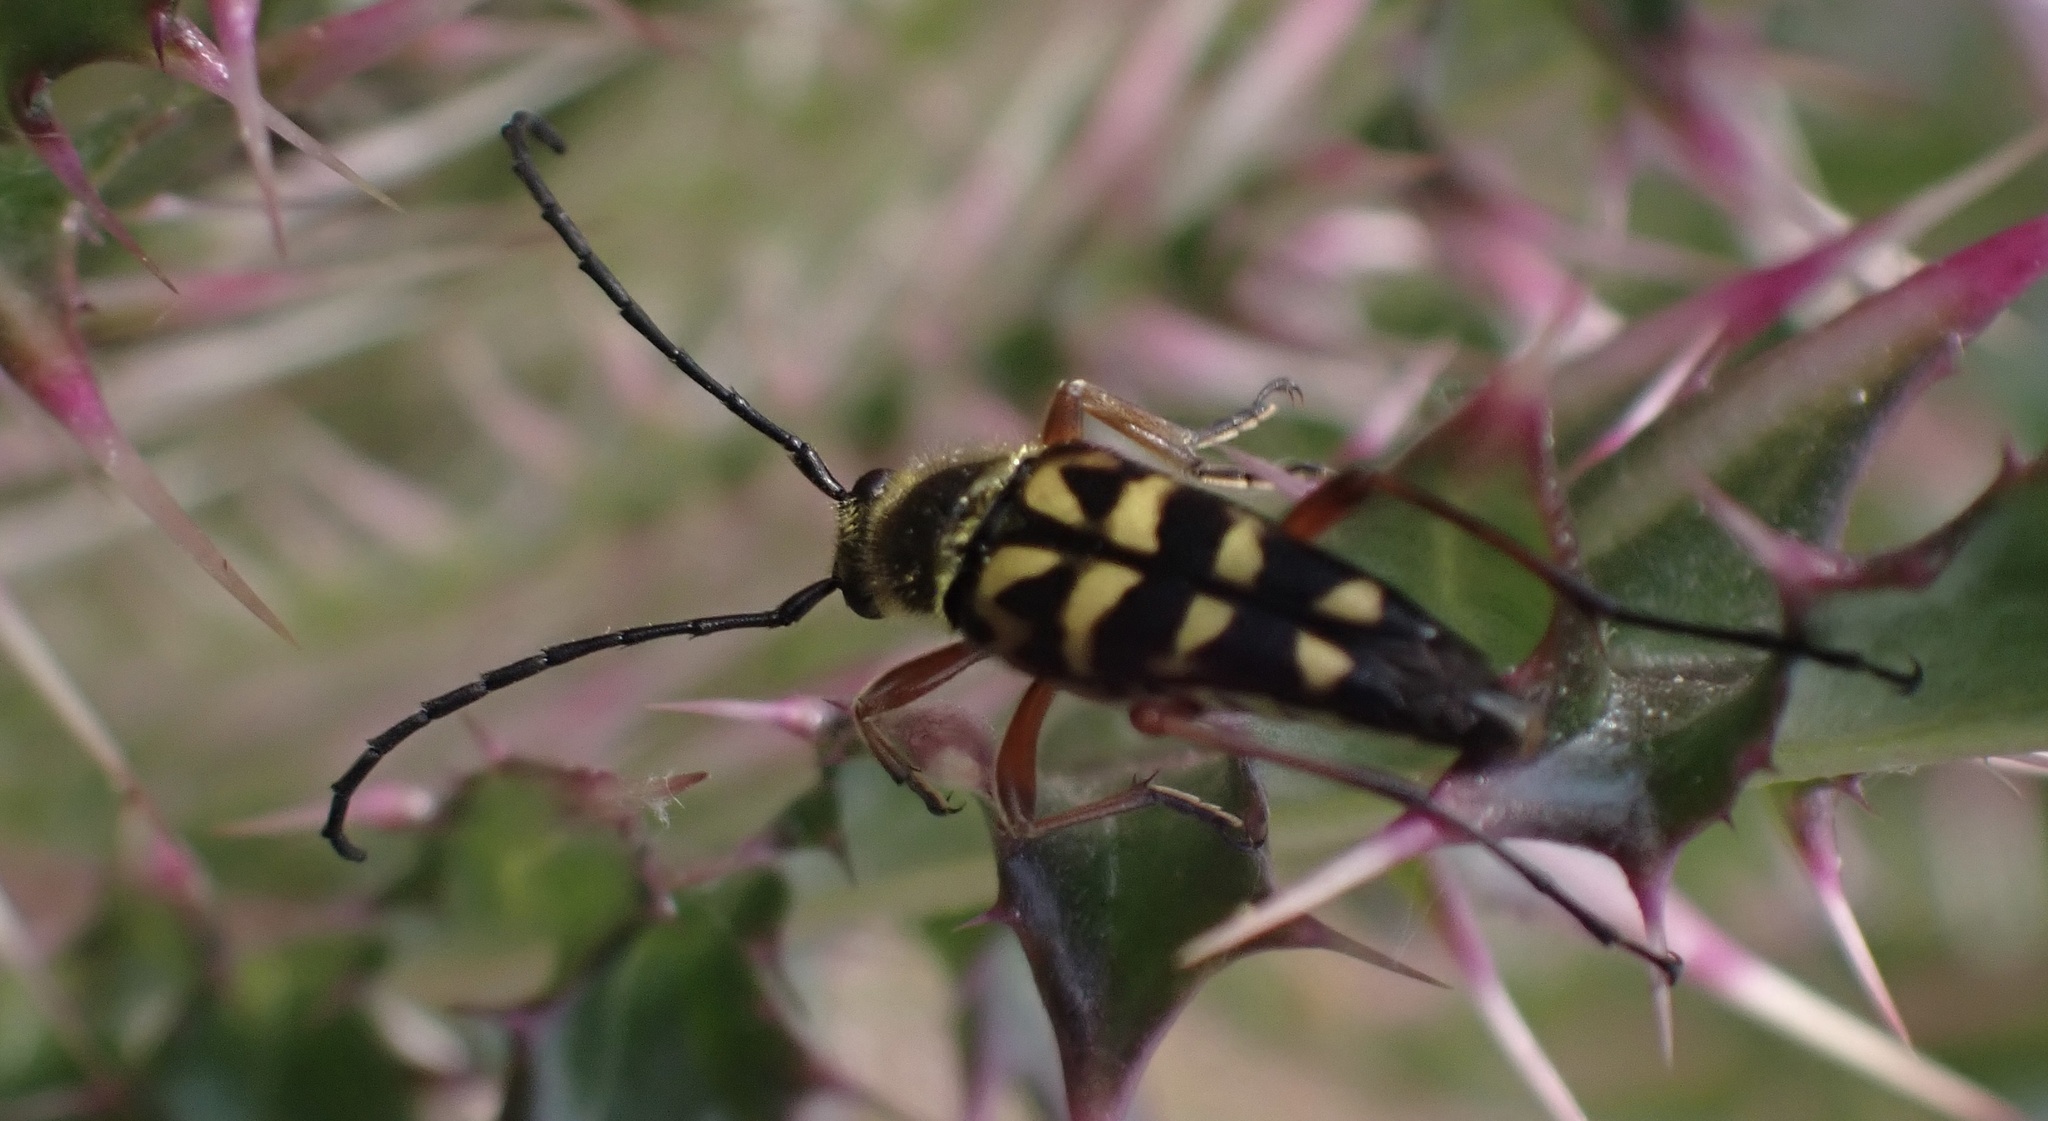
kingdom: Animalia
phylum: Arthropoda
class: Insecta
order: Coleoptera
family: Cerambycidae
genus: Typocerus
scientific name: Typocerus zebra
